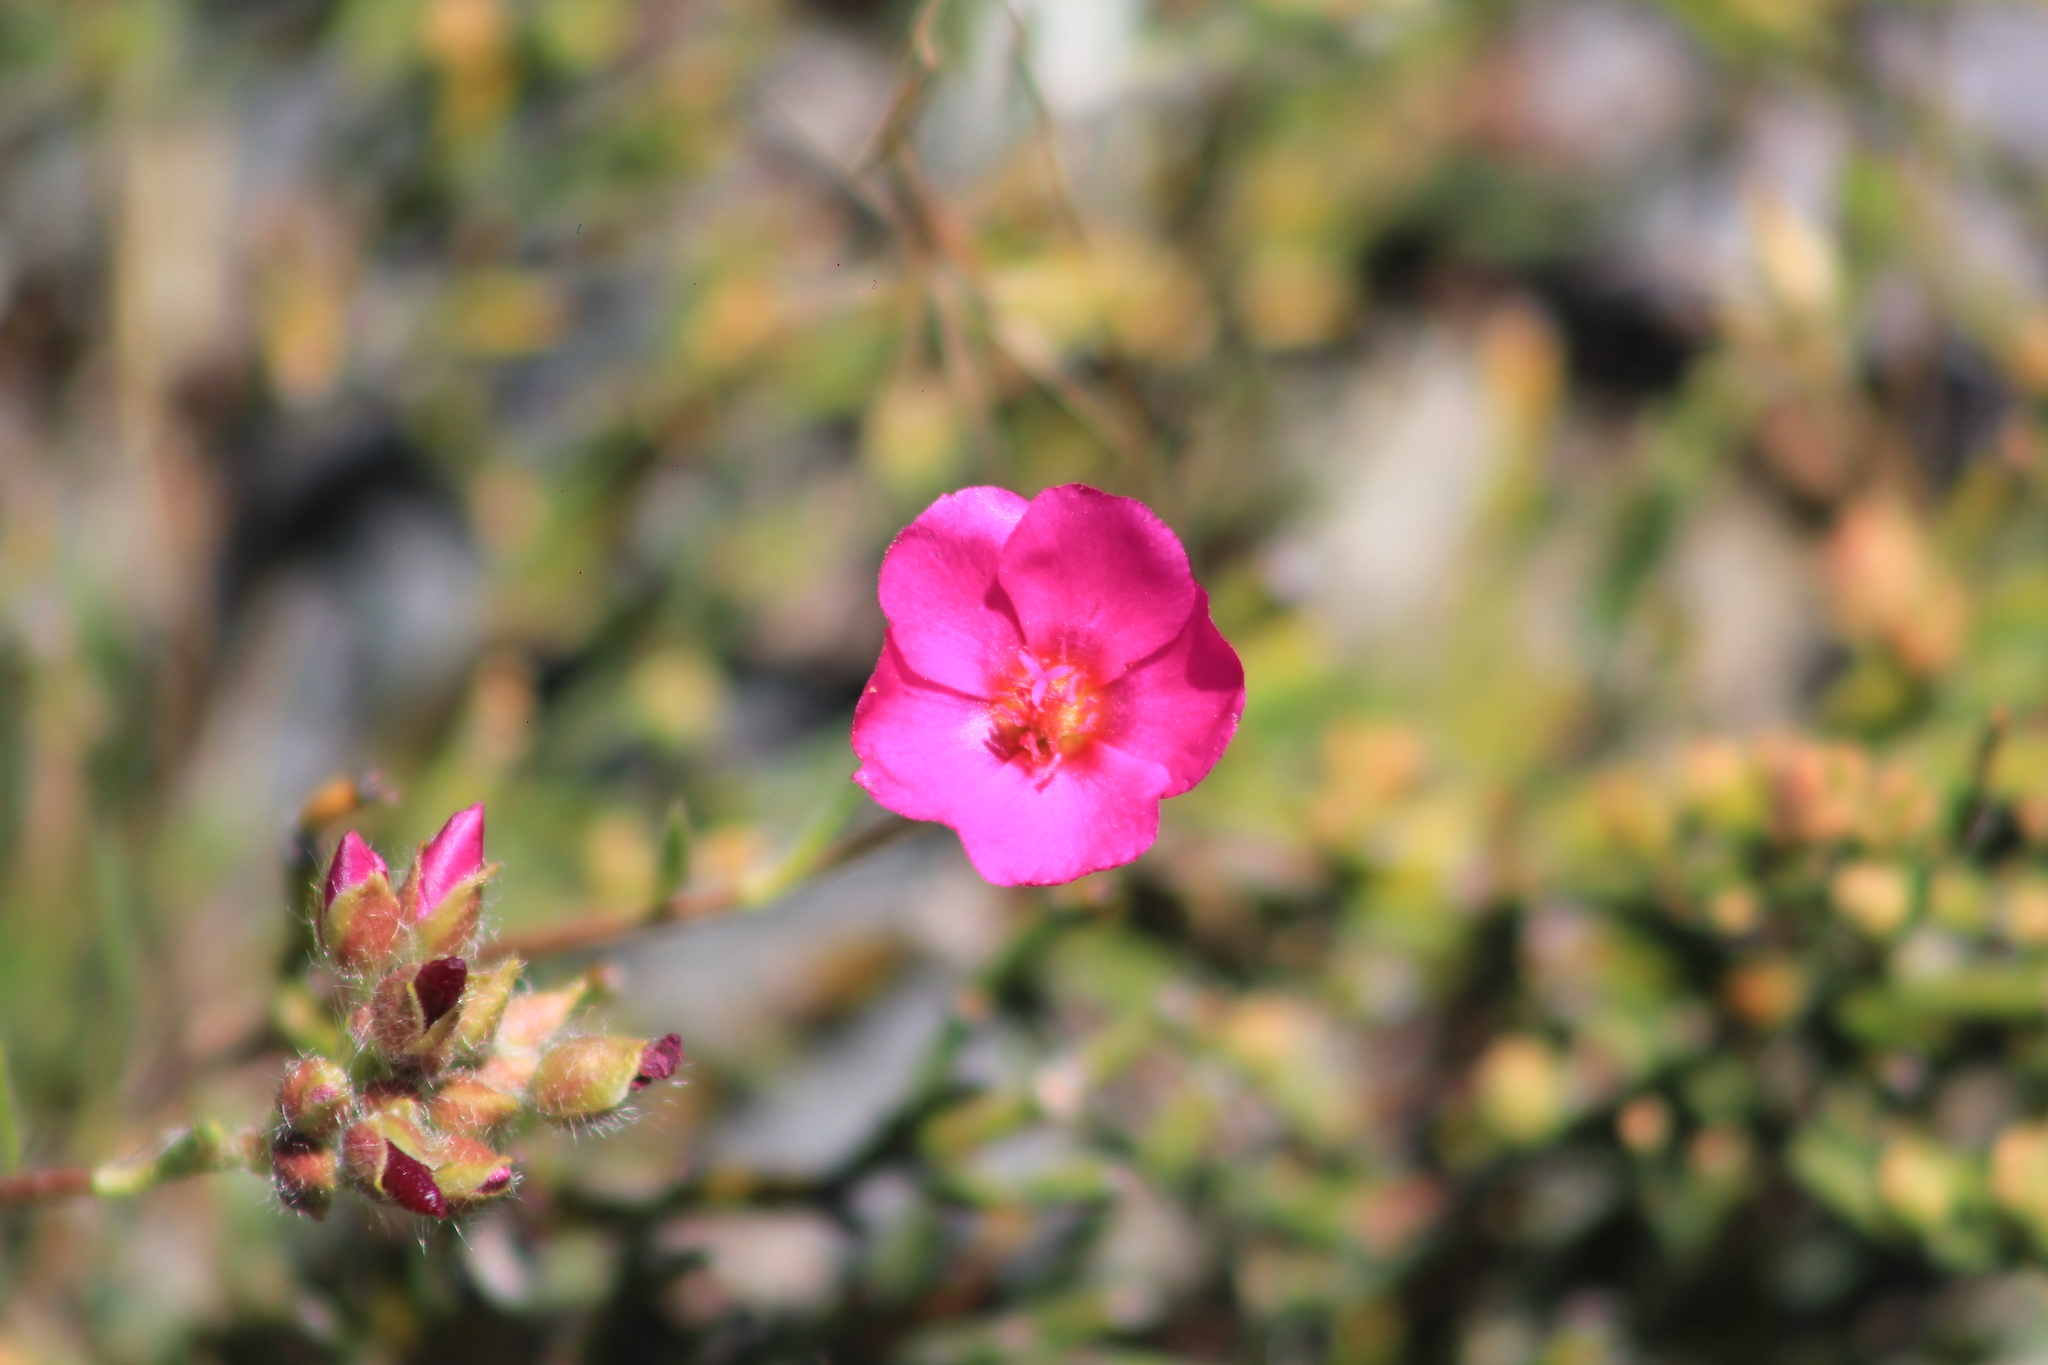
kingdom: Plantae
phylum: Tracheophyta
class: Magnoliopsida
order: Caryophyllales
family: Montiaceae
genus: Montiopsis
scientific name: Montiopsis umbellata
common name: Rock-purslane
